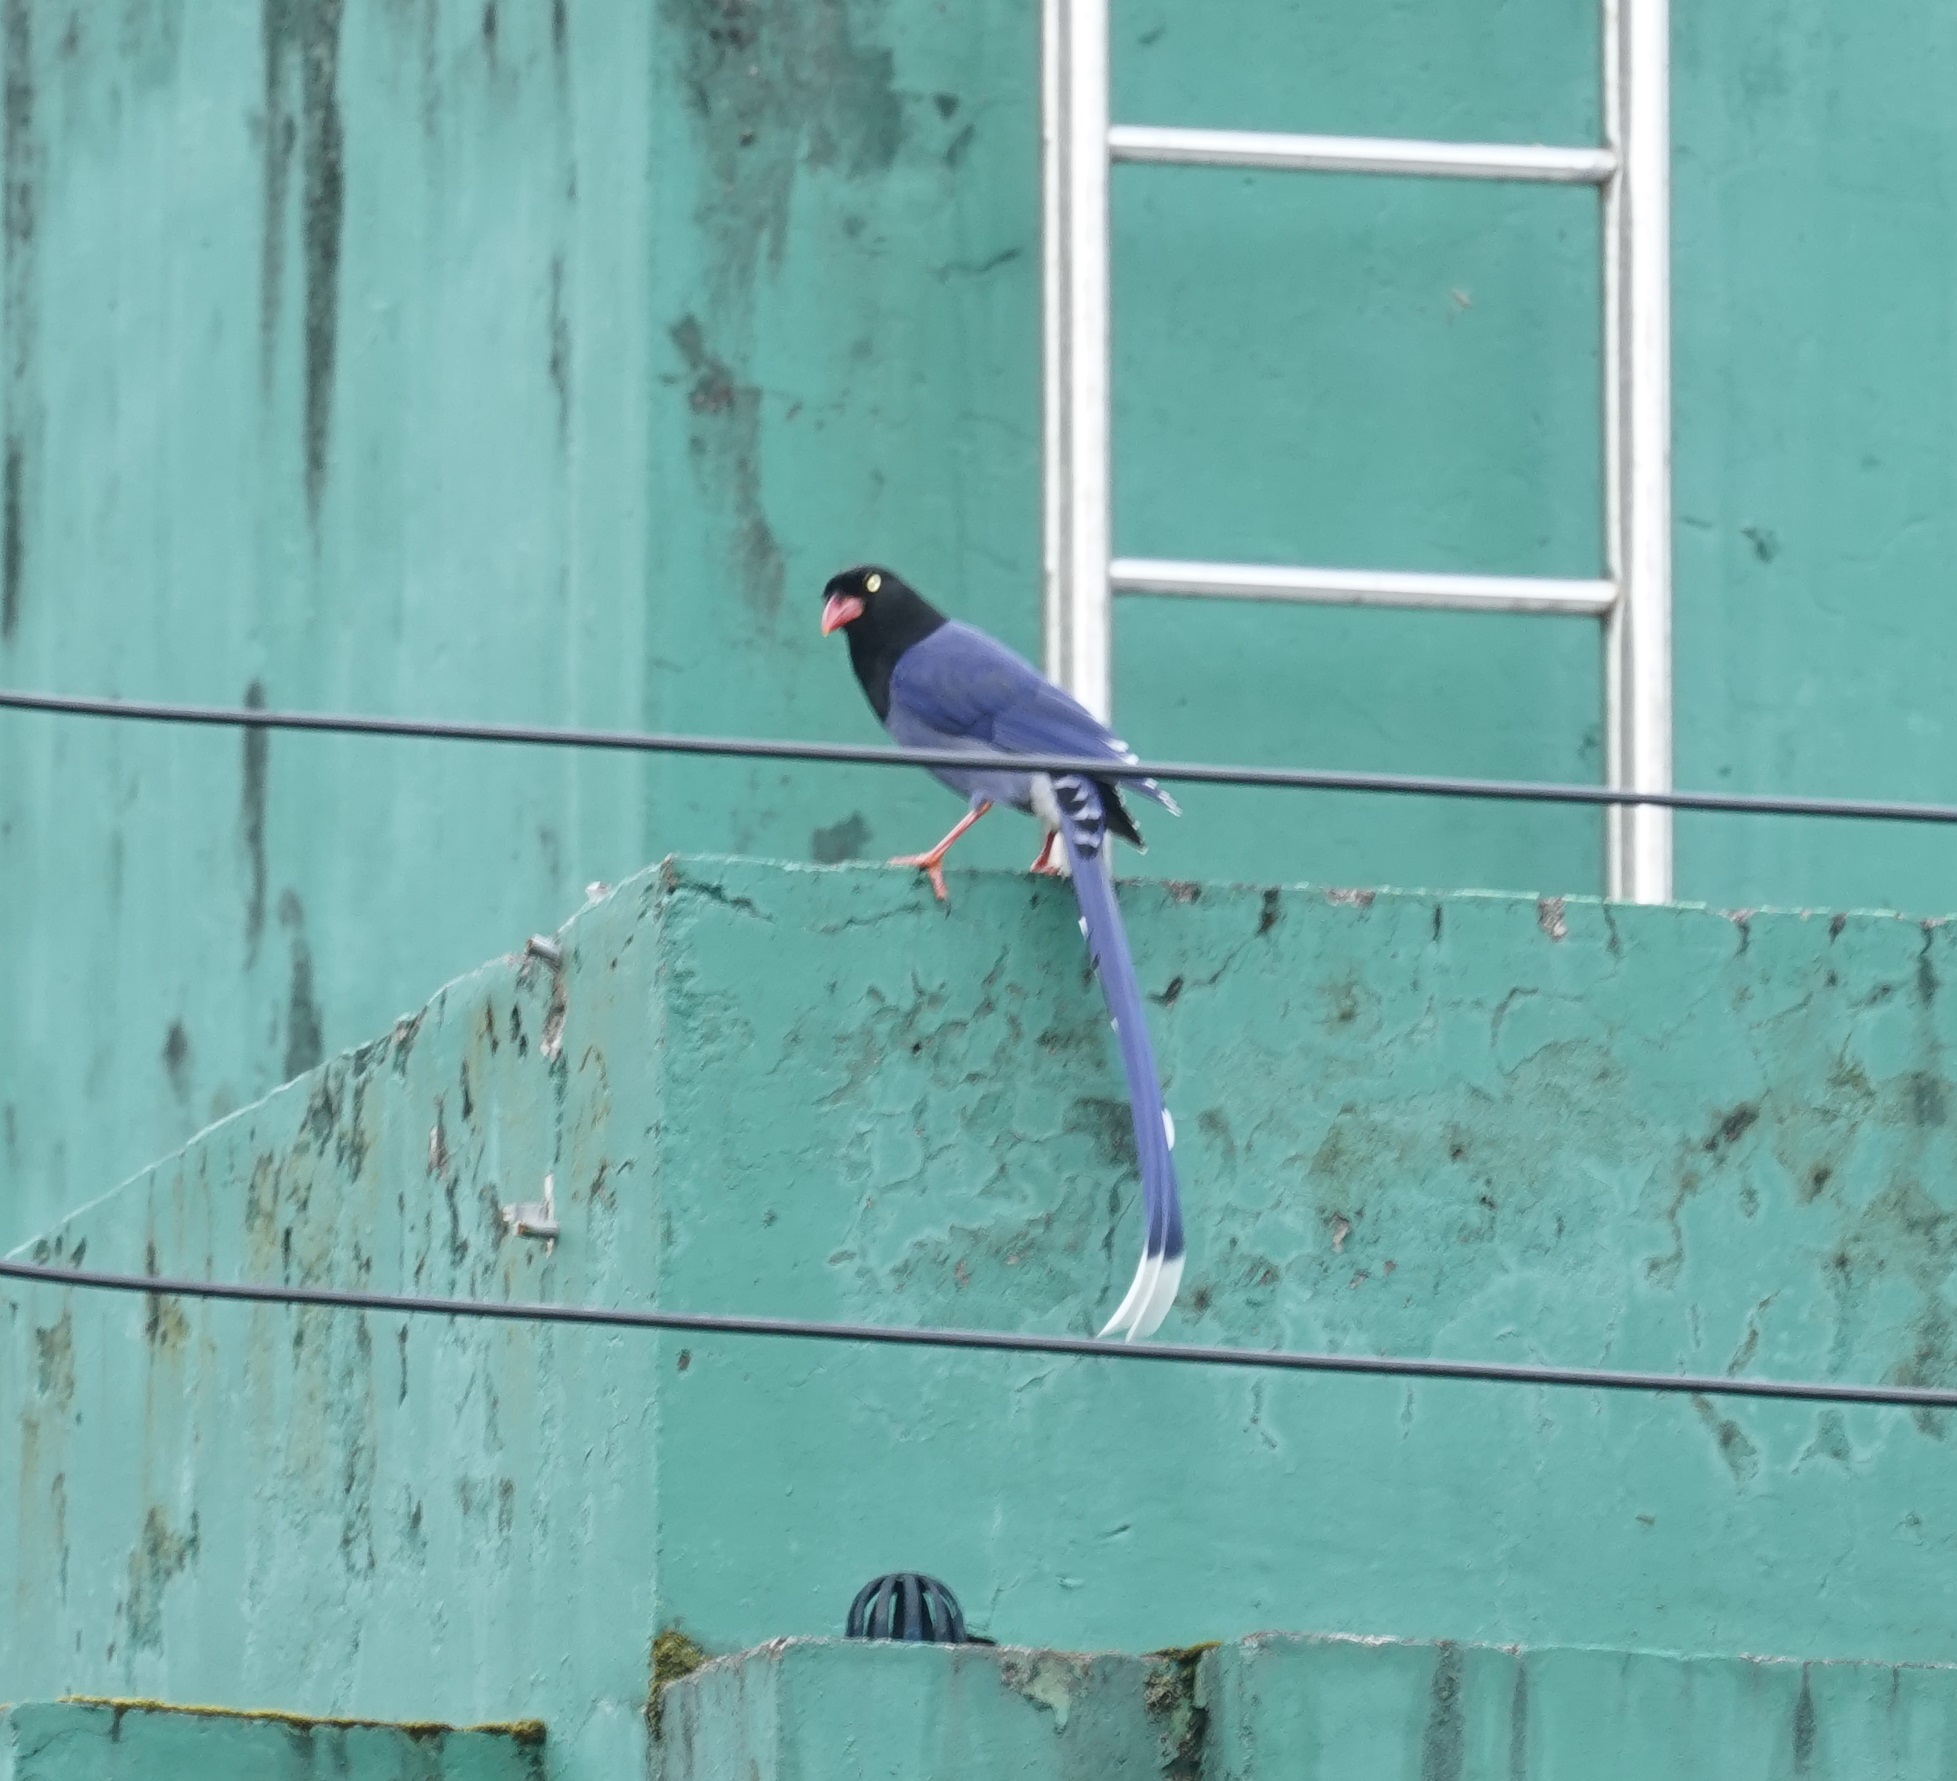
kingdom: Animalia
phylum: Chordata
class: Aves
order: Passeriformes
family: Corvidae
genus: Urocissa
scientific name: Urocissa caerulea
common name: Taiwan blue magpie
